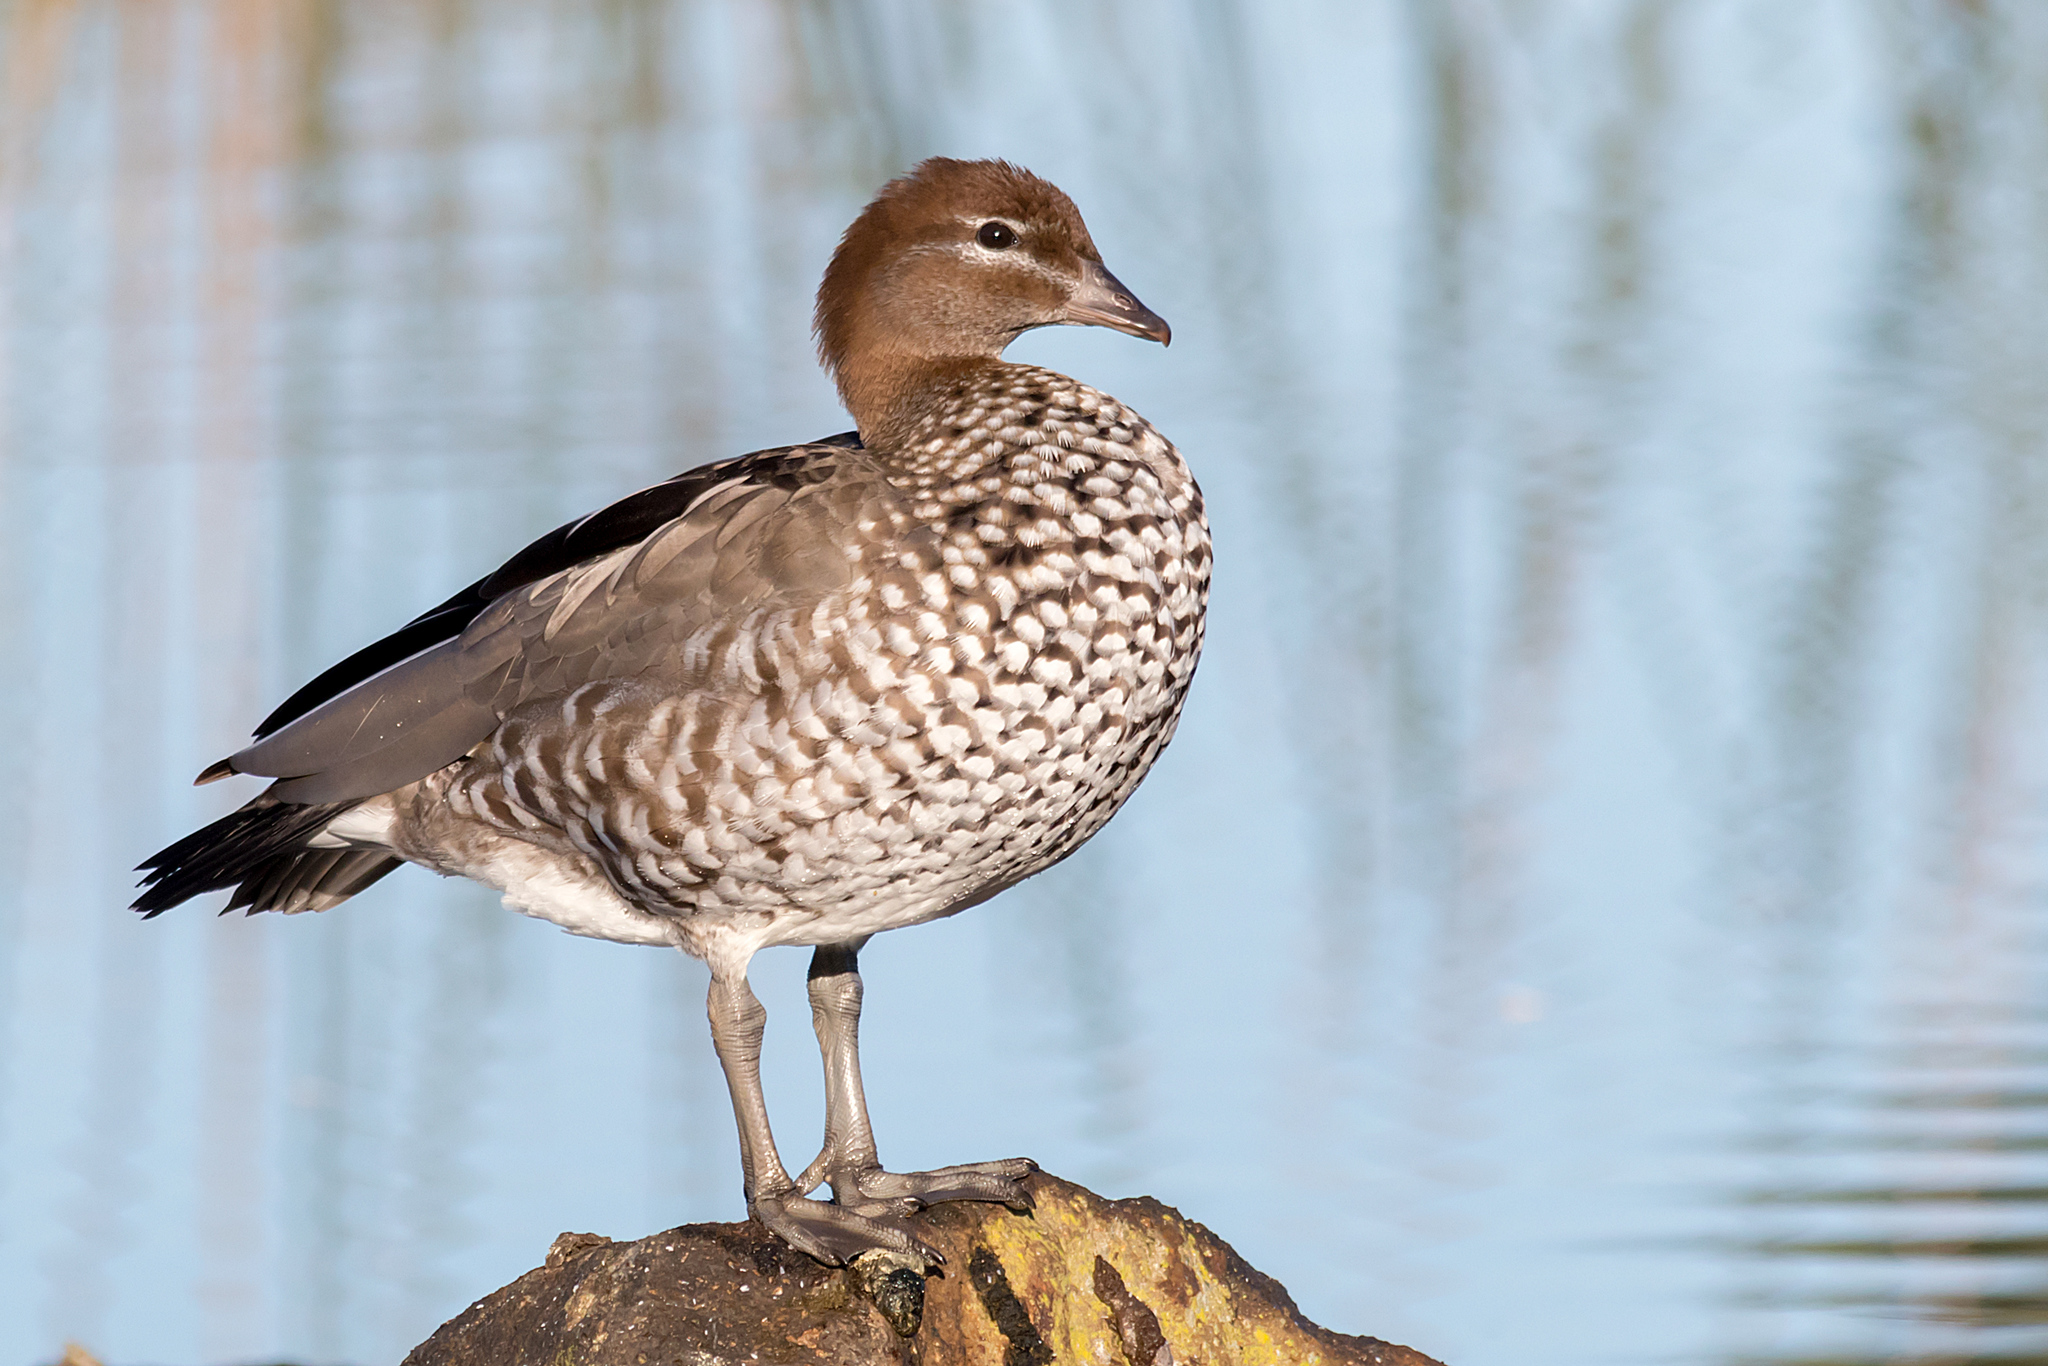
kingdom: Animalia
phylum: Chordata
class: Aves
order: Anseriformes
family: Anatidae
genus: Chenonetta
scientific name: Chenonetta jubata
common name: Maned duck
